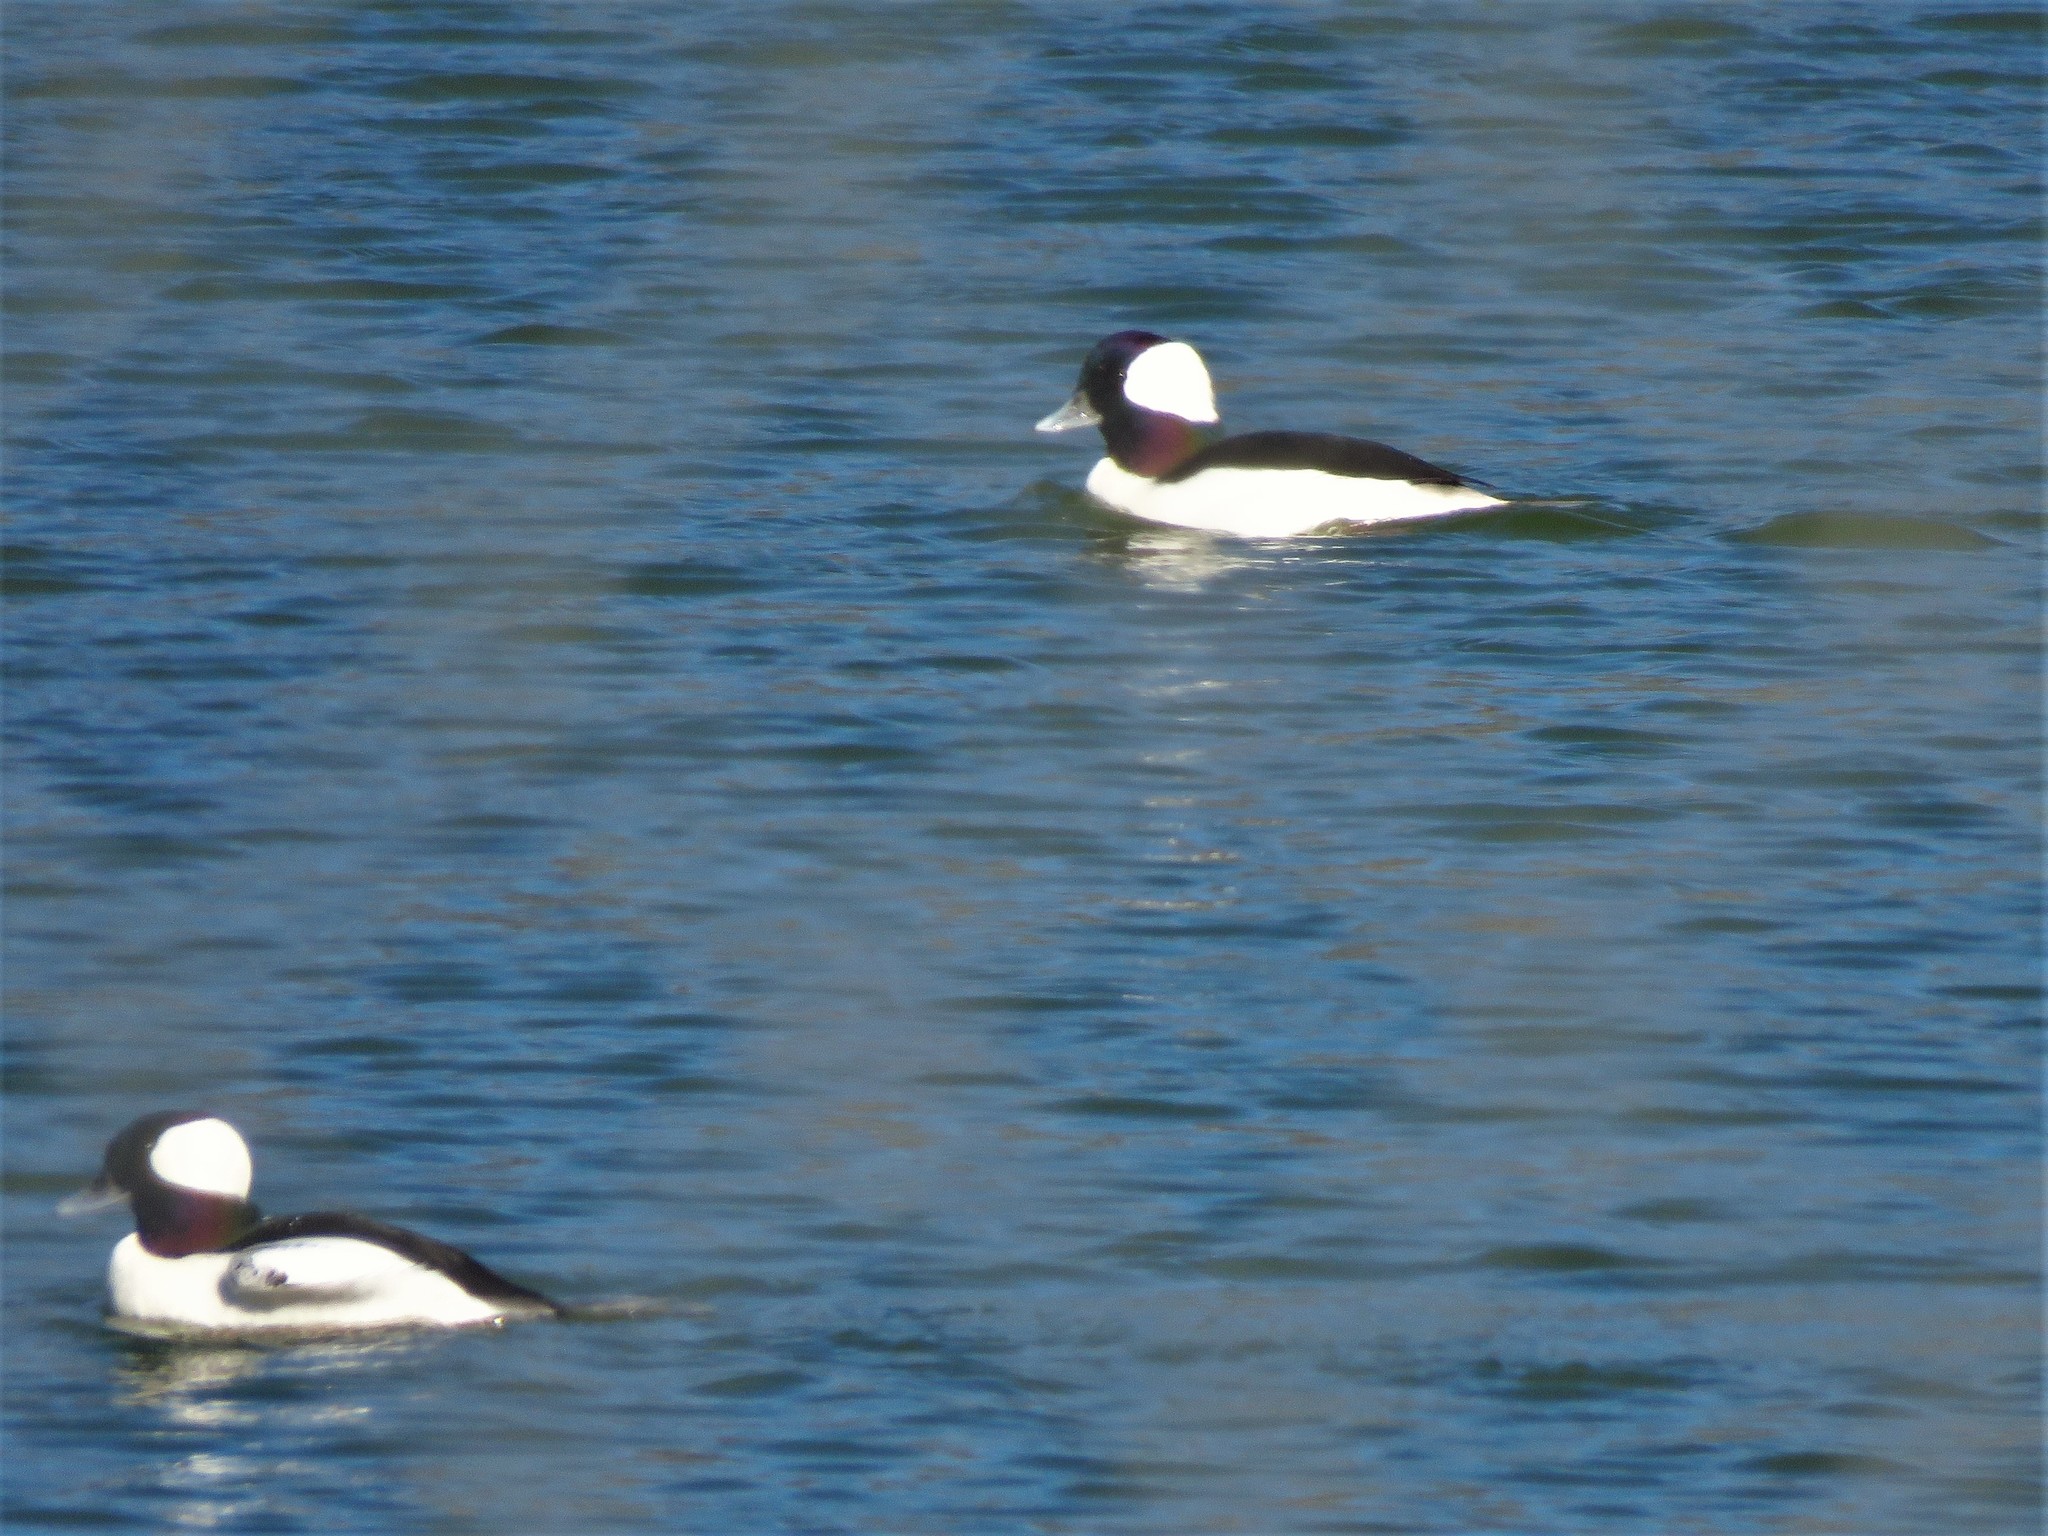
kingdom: Animalia
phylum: Chordata
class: Aves
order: Anseriformes
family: Anatidae
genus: Bucephala
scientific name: Bucephala albeola
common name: Bufflehead
